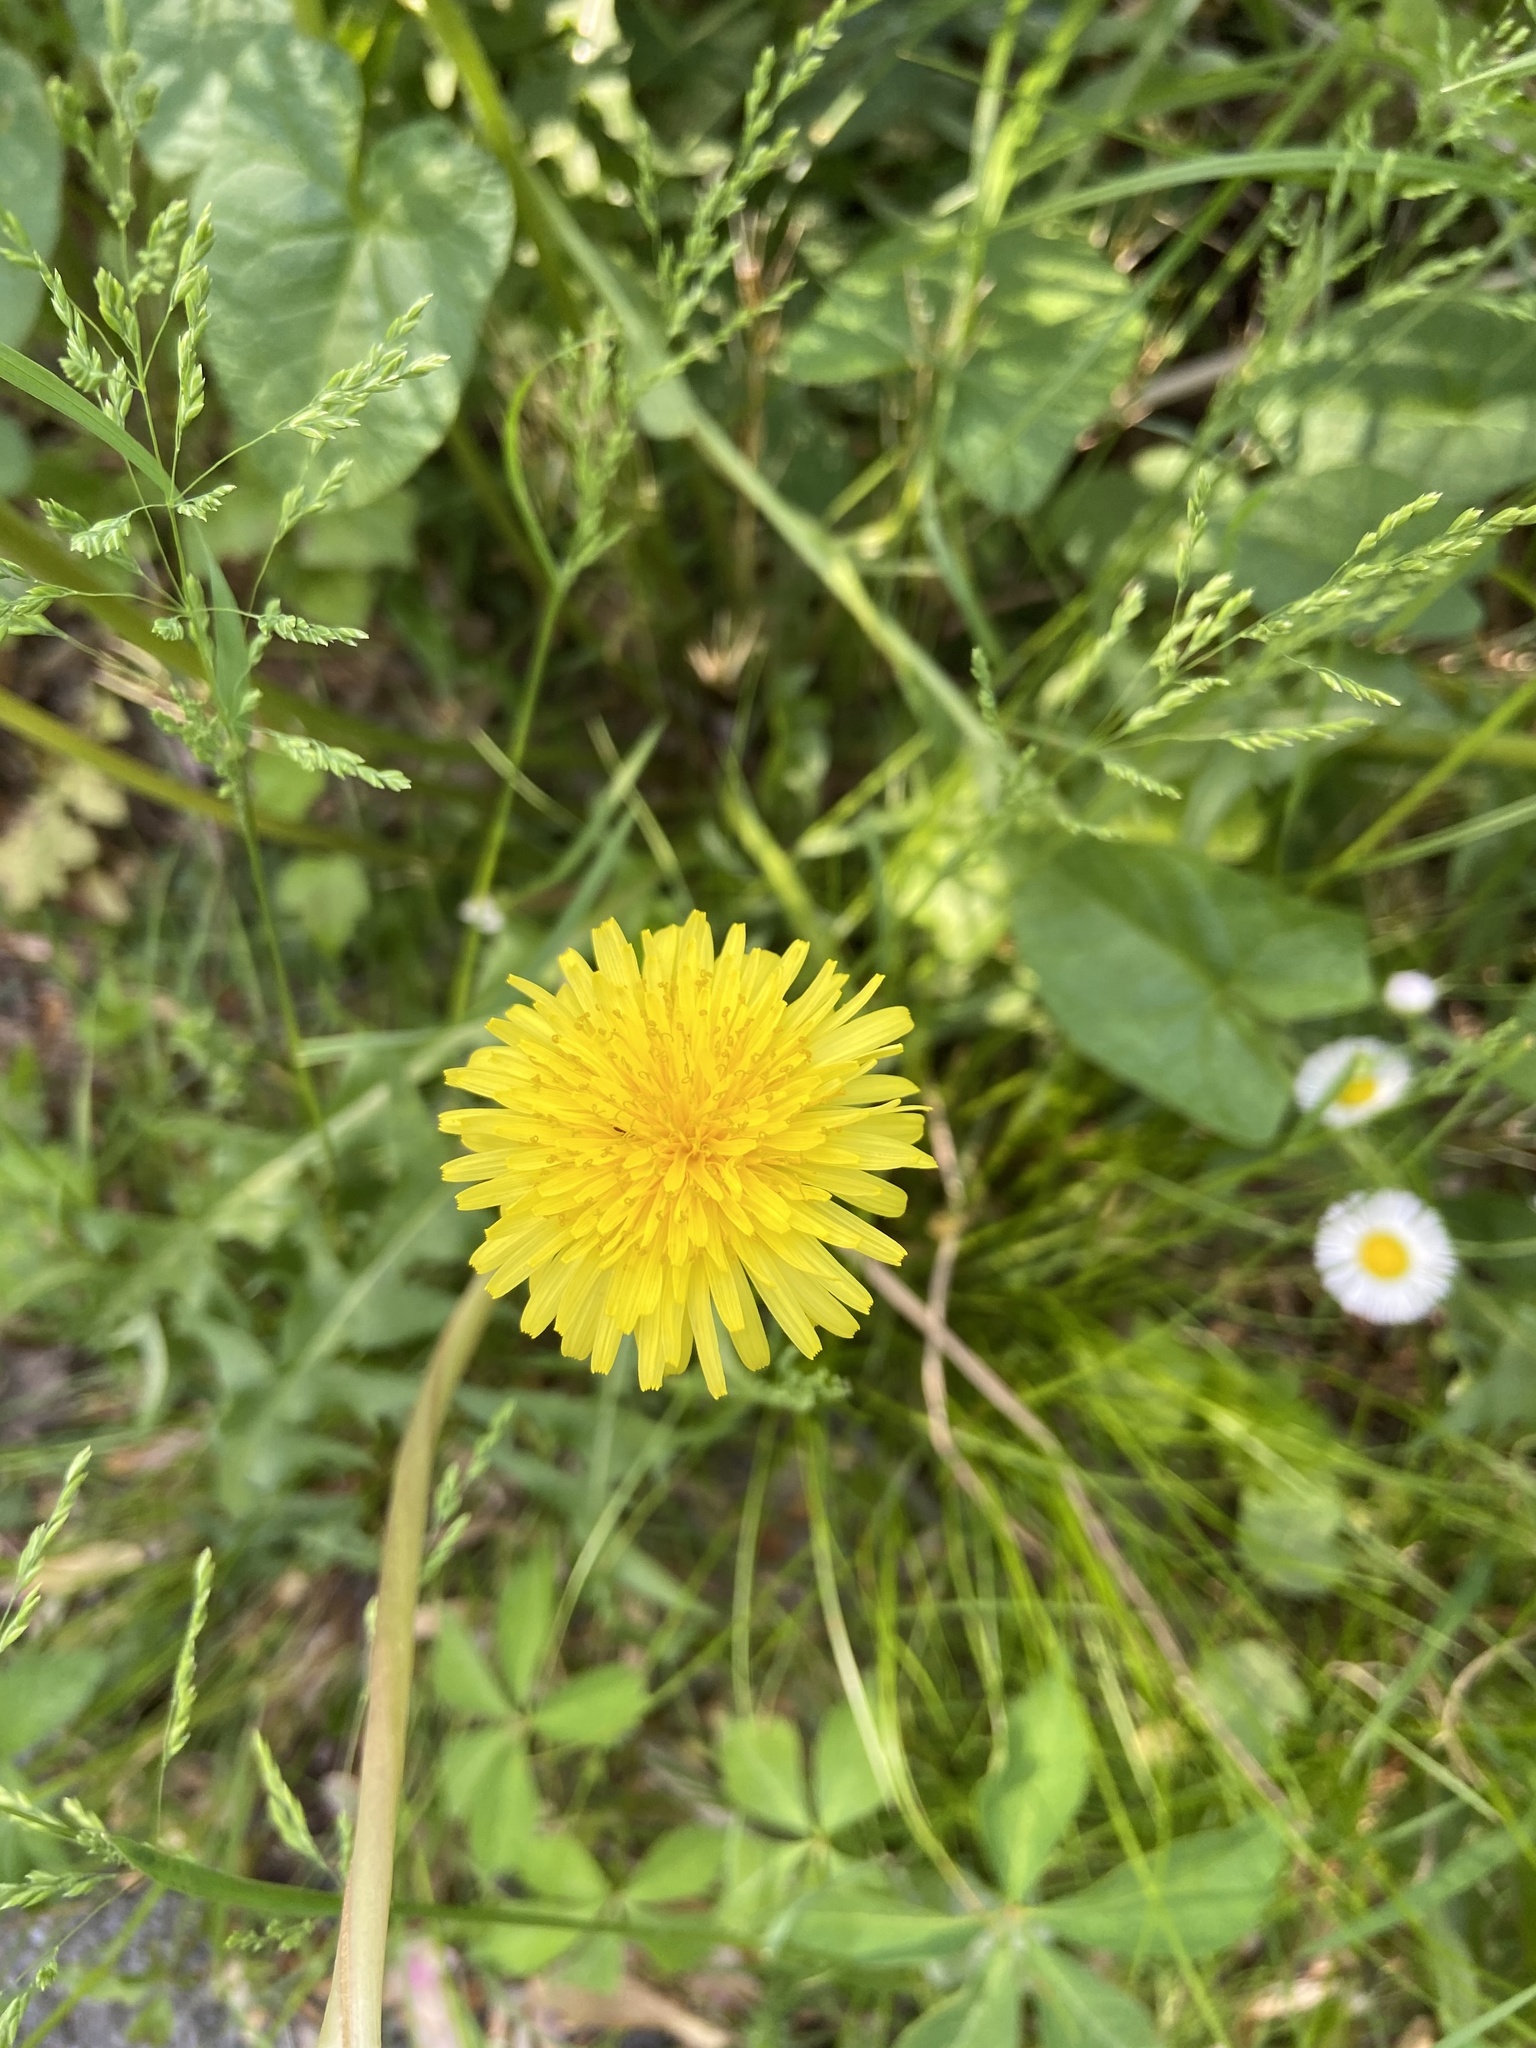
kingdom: Plantae
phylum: Tracheophyta
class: Magnoliopsida
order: Asterales
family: Asteraceae
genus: Taraxacum
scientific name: Taraxacum officinale
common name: Common dandelion
